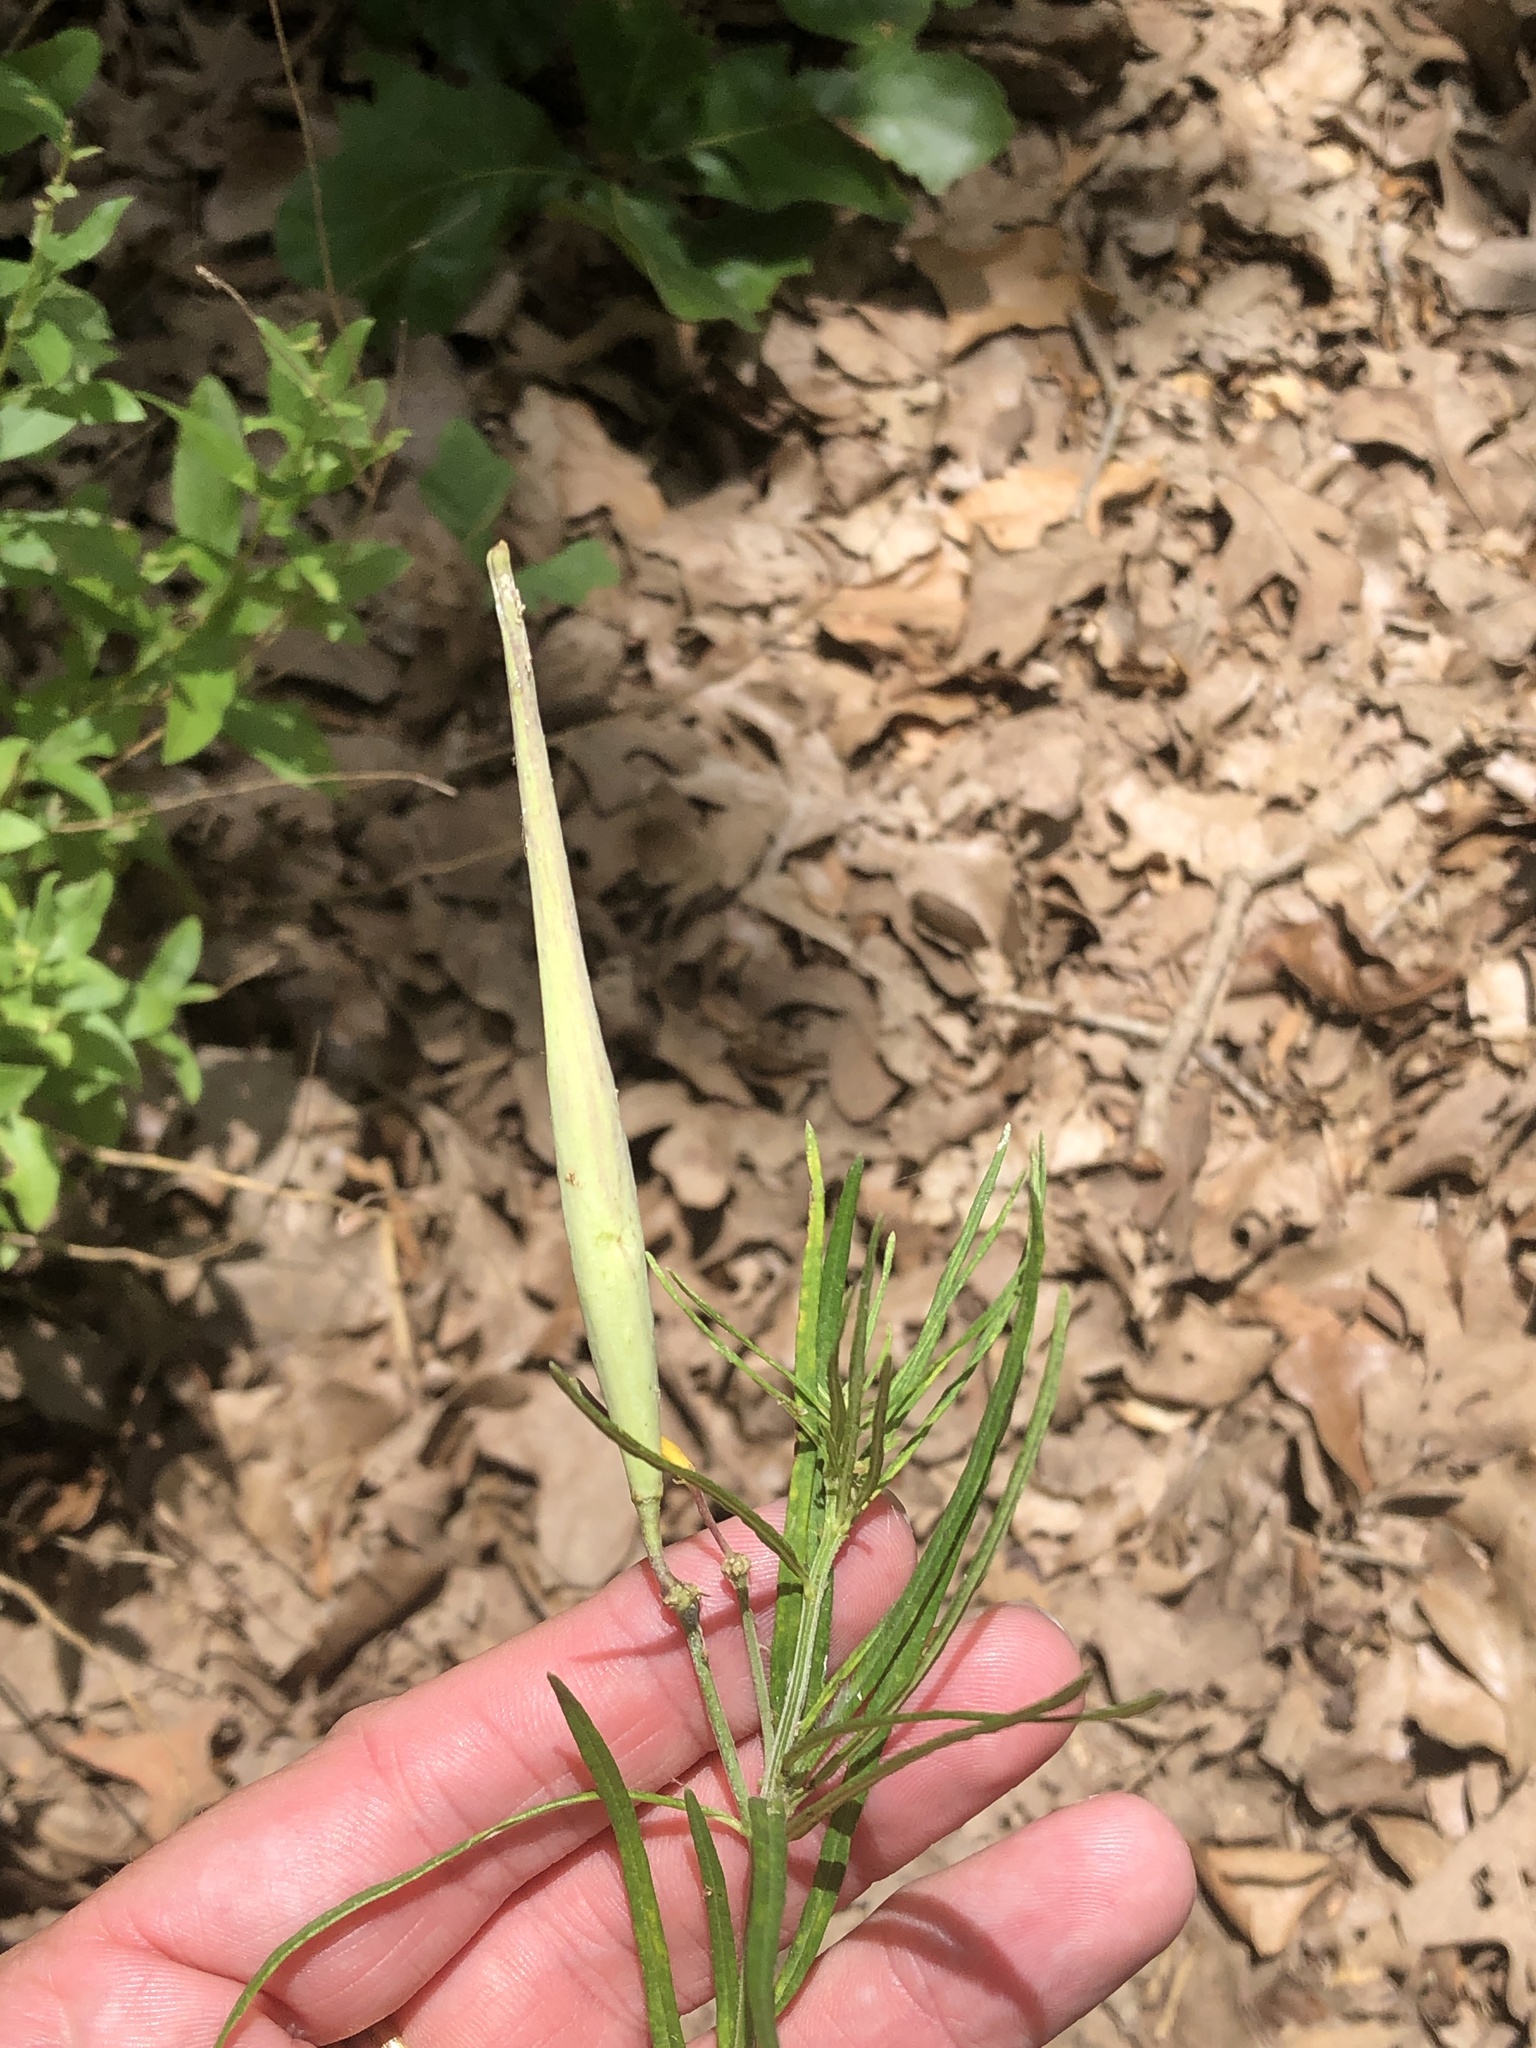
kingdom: Plantae
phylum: Tracheophyta
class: Magnoliopsida
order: Gentianales
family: Apocynaceae
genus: Asclepias
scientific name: Asclepias verticillata
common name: Eastern whorled milkweed
